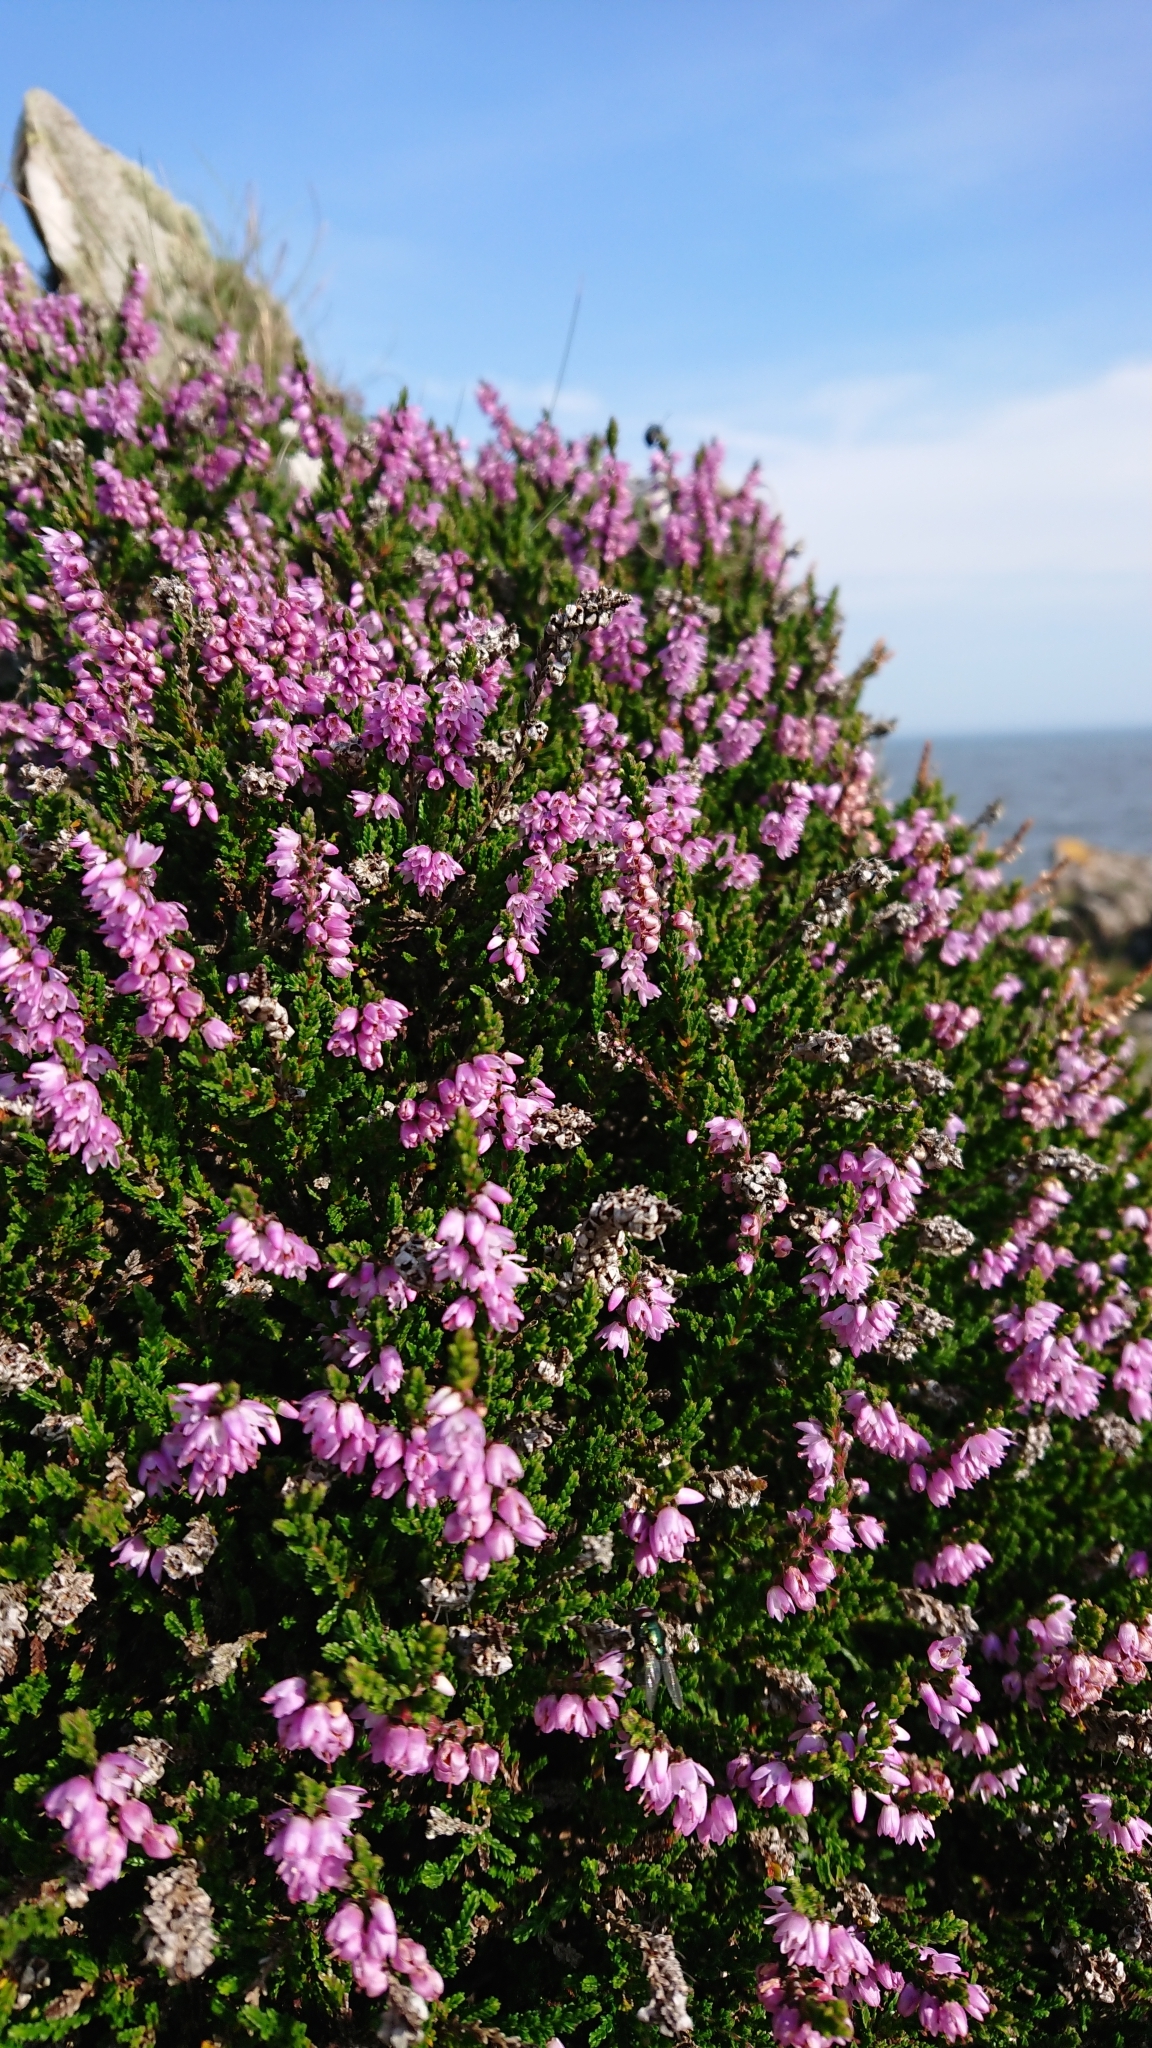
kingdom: Plantae
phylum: Tracheophyta
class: Magnoliopsida
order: Ericales
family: Ericaceae
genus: Calluna
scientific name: Calluna vulgaris
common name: Heather
